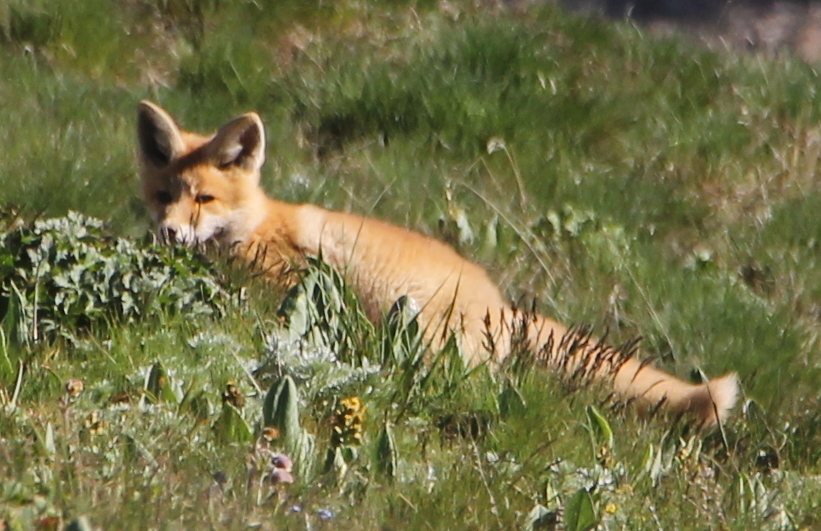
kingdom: Animalia
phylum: Chordata
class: Mammalia
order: Carnivora
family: Canidae
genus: Vulpes
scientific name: Vulpes vulpes
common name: Red fox
